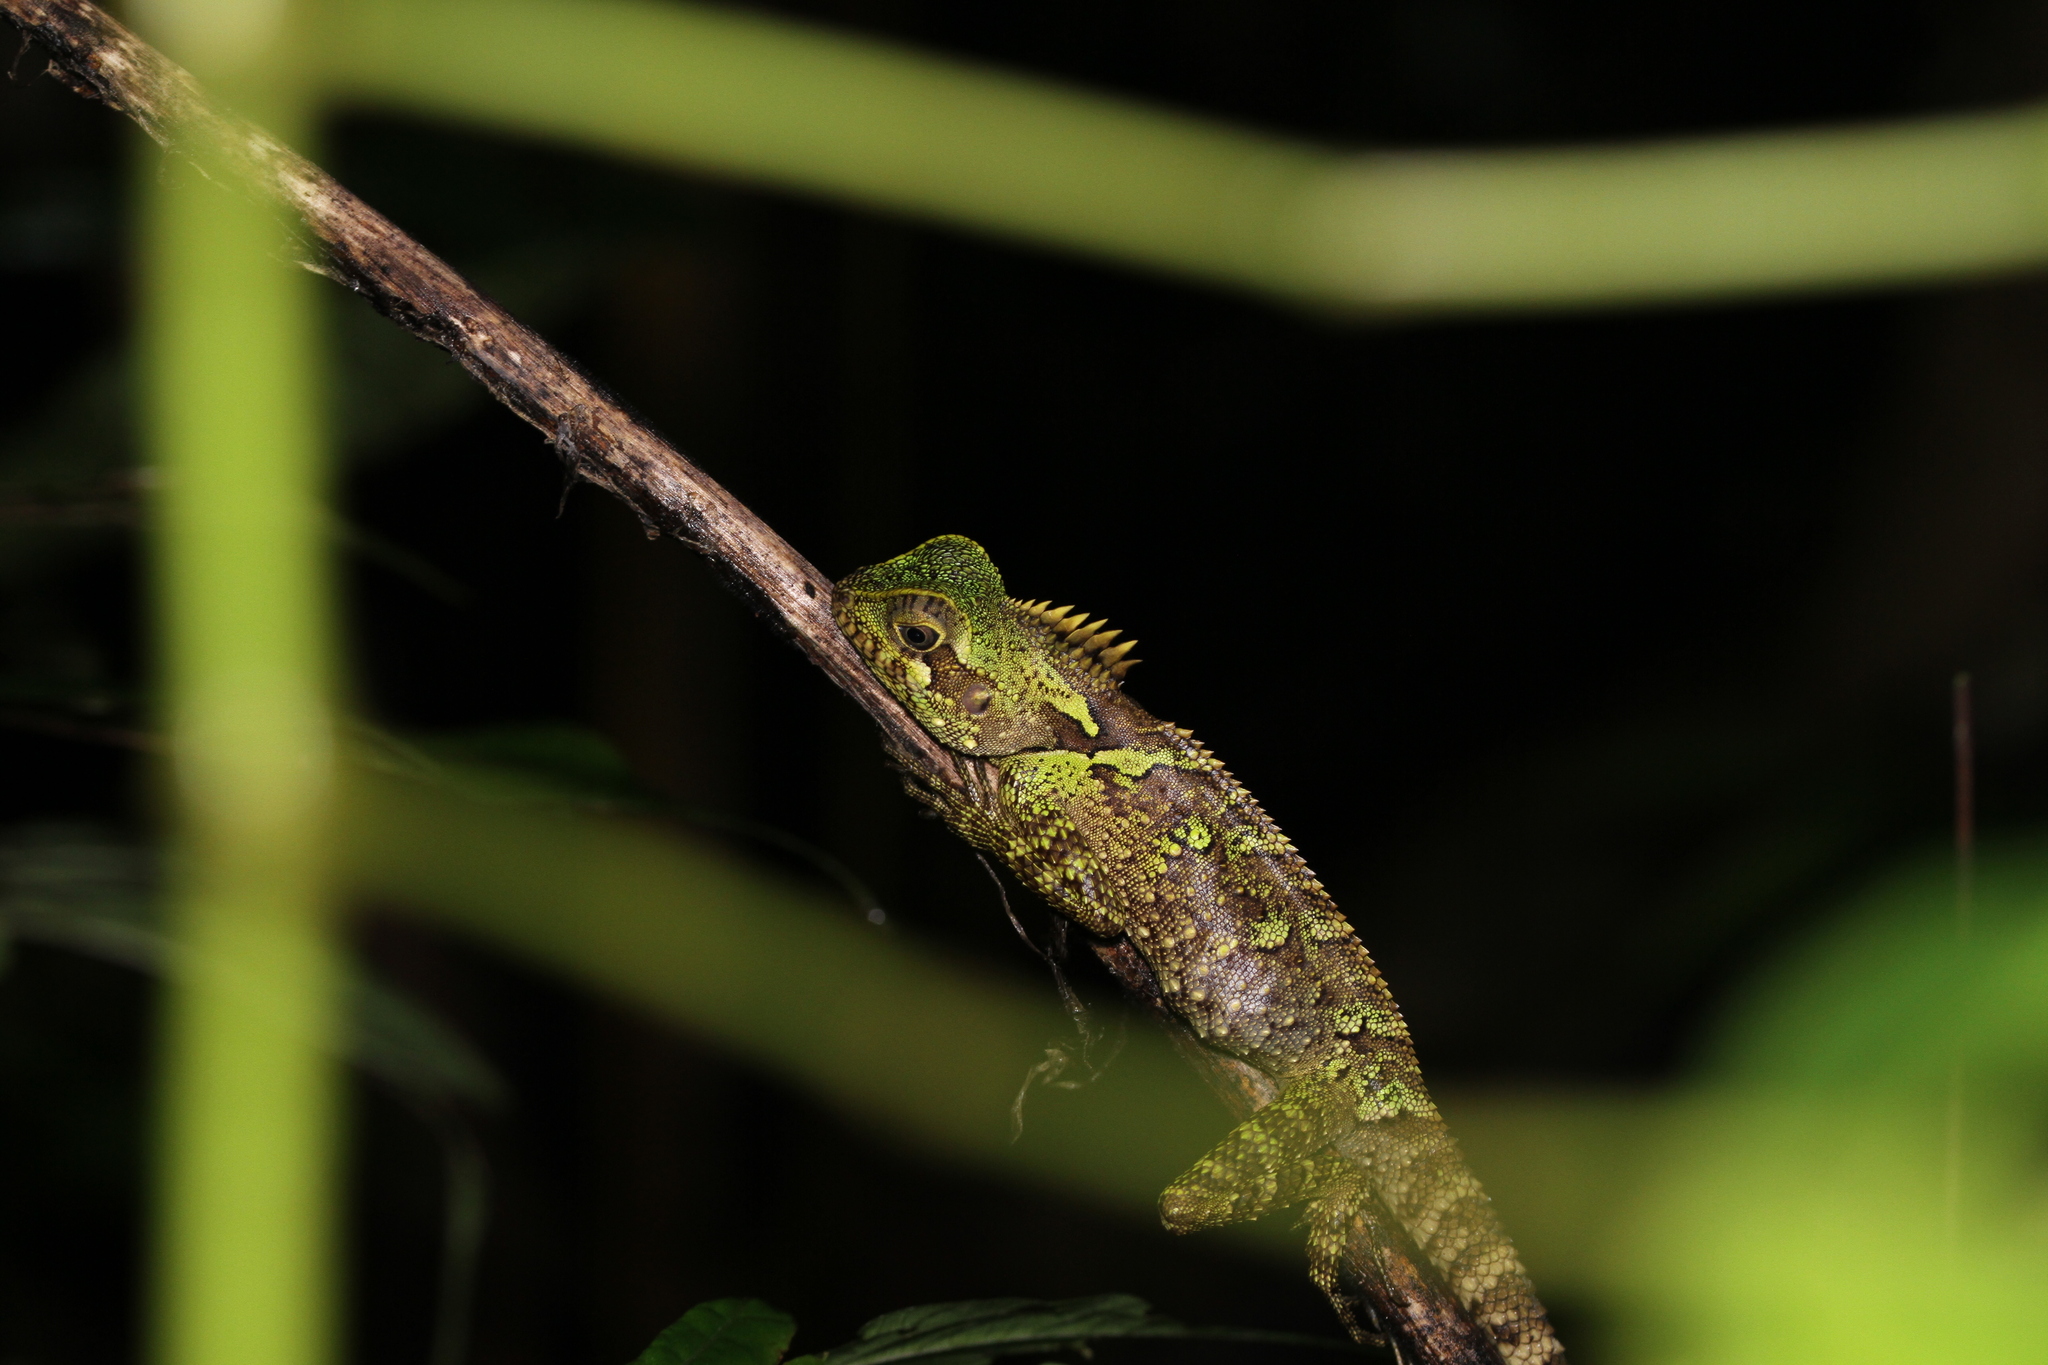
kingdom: Animalia
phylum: Chordata
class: Squamata
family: Agamidae
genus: Gonocephalus
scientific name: Gonocephalus klossi
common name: Kloss' forest dragon
